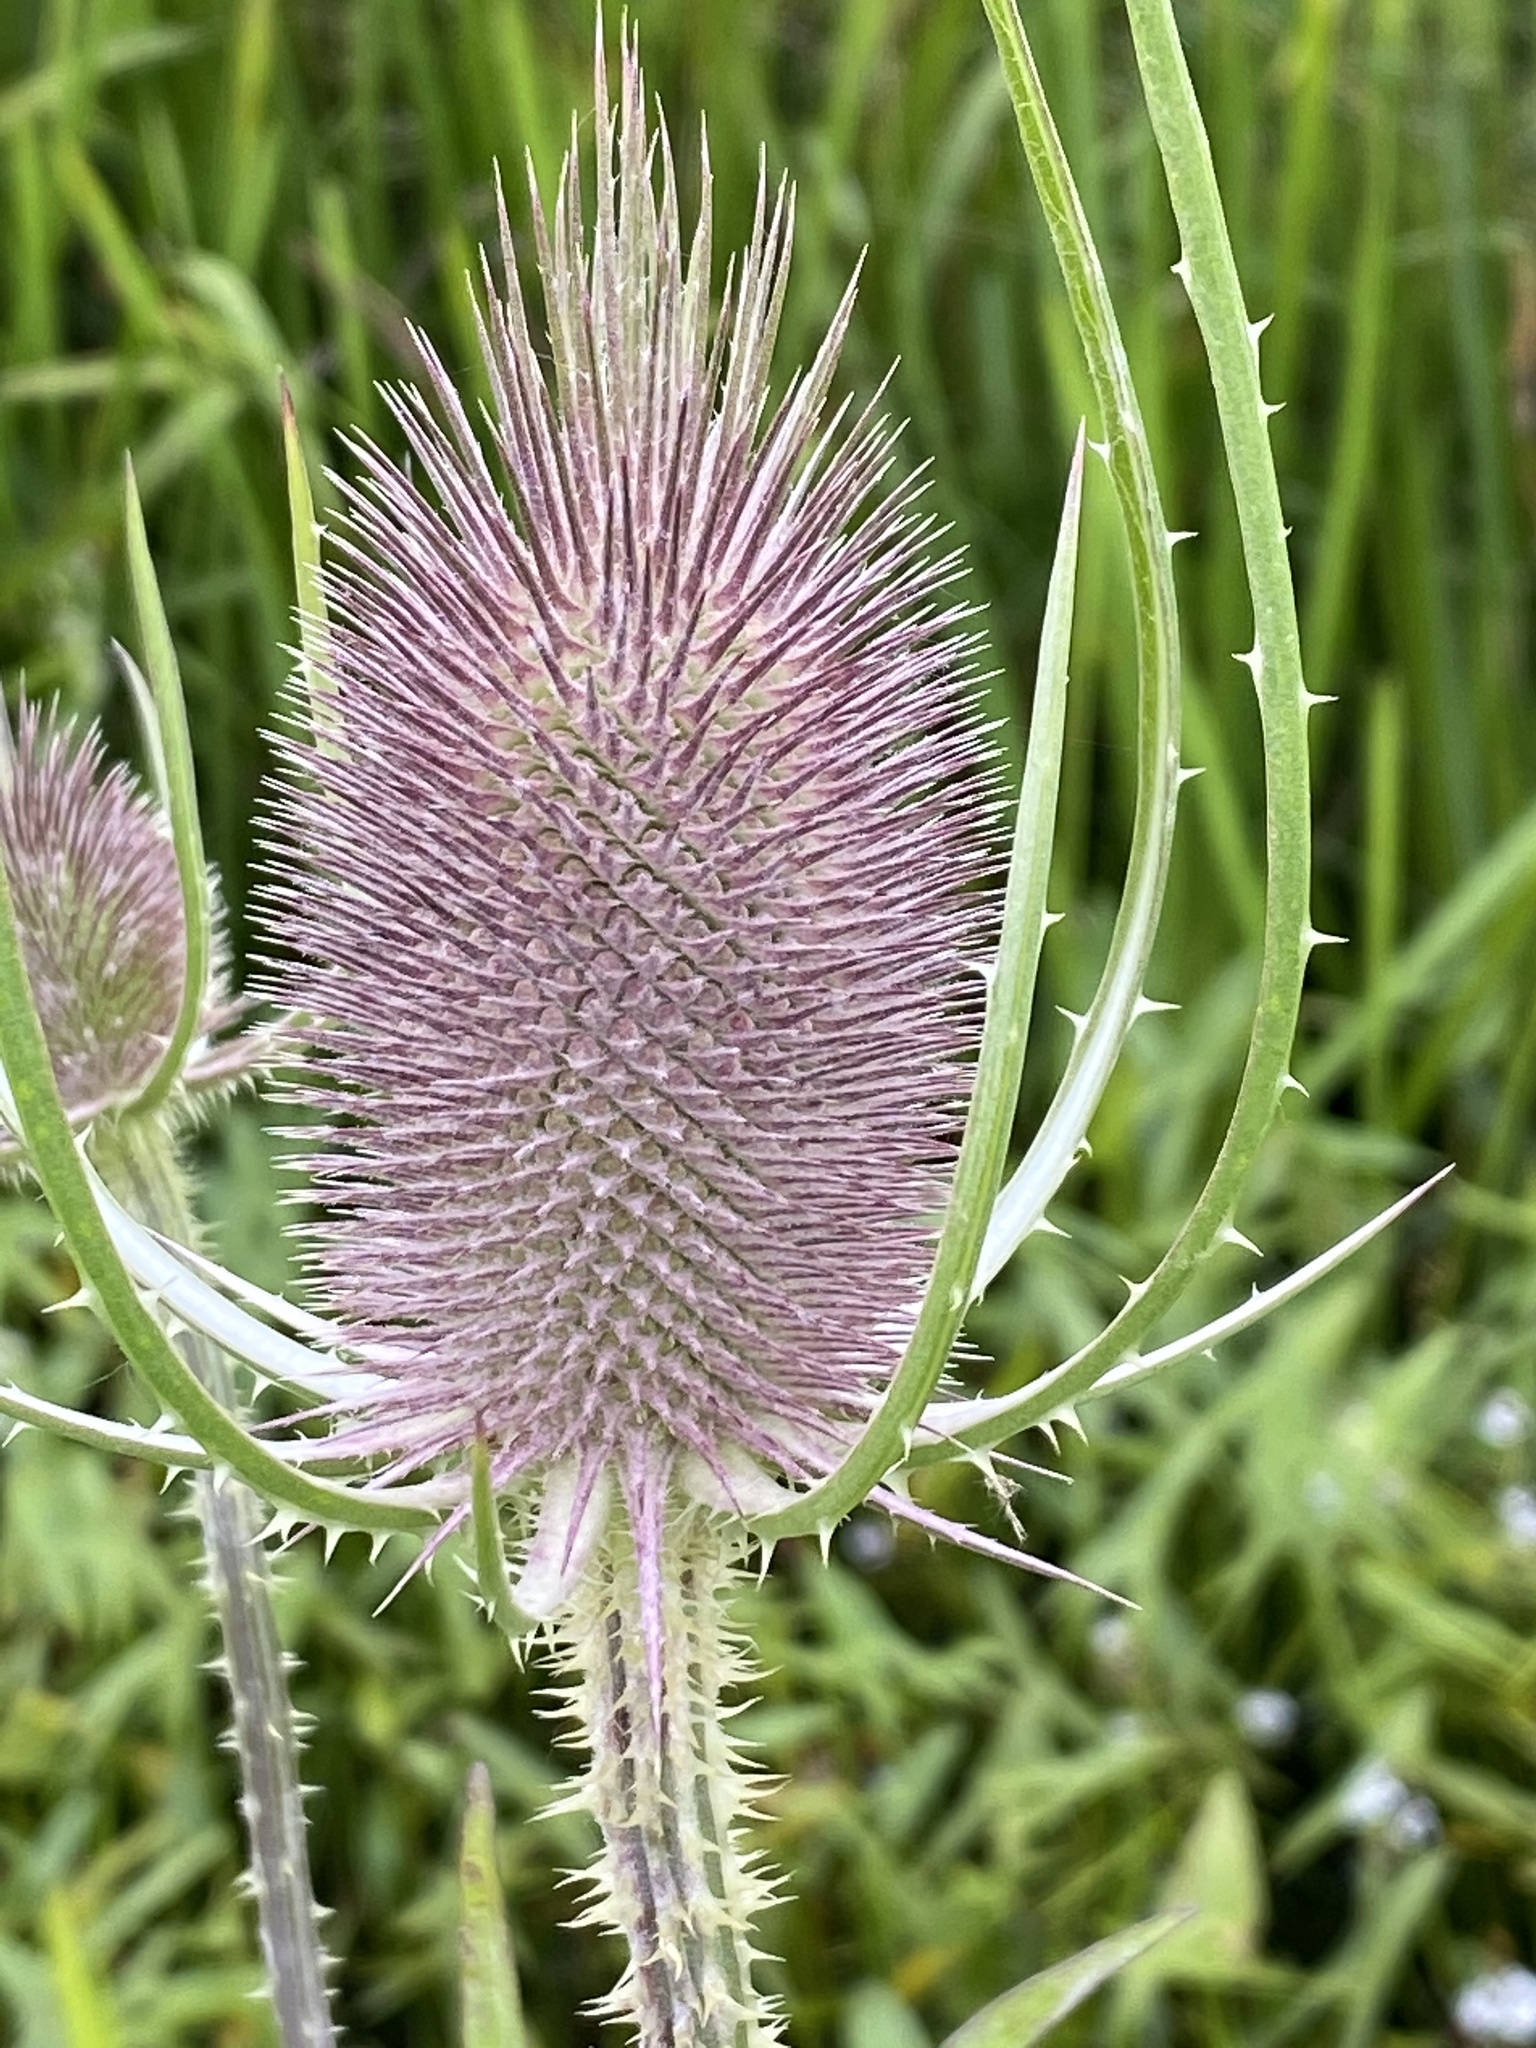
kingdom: Plantae
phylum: Tracheophyta
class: Magnoliopsida
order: Dipsacales
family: Caprifoliaceae
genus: Dipsacus
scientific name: Dipsacus fullonum
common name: Teasel
